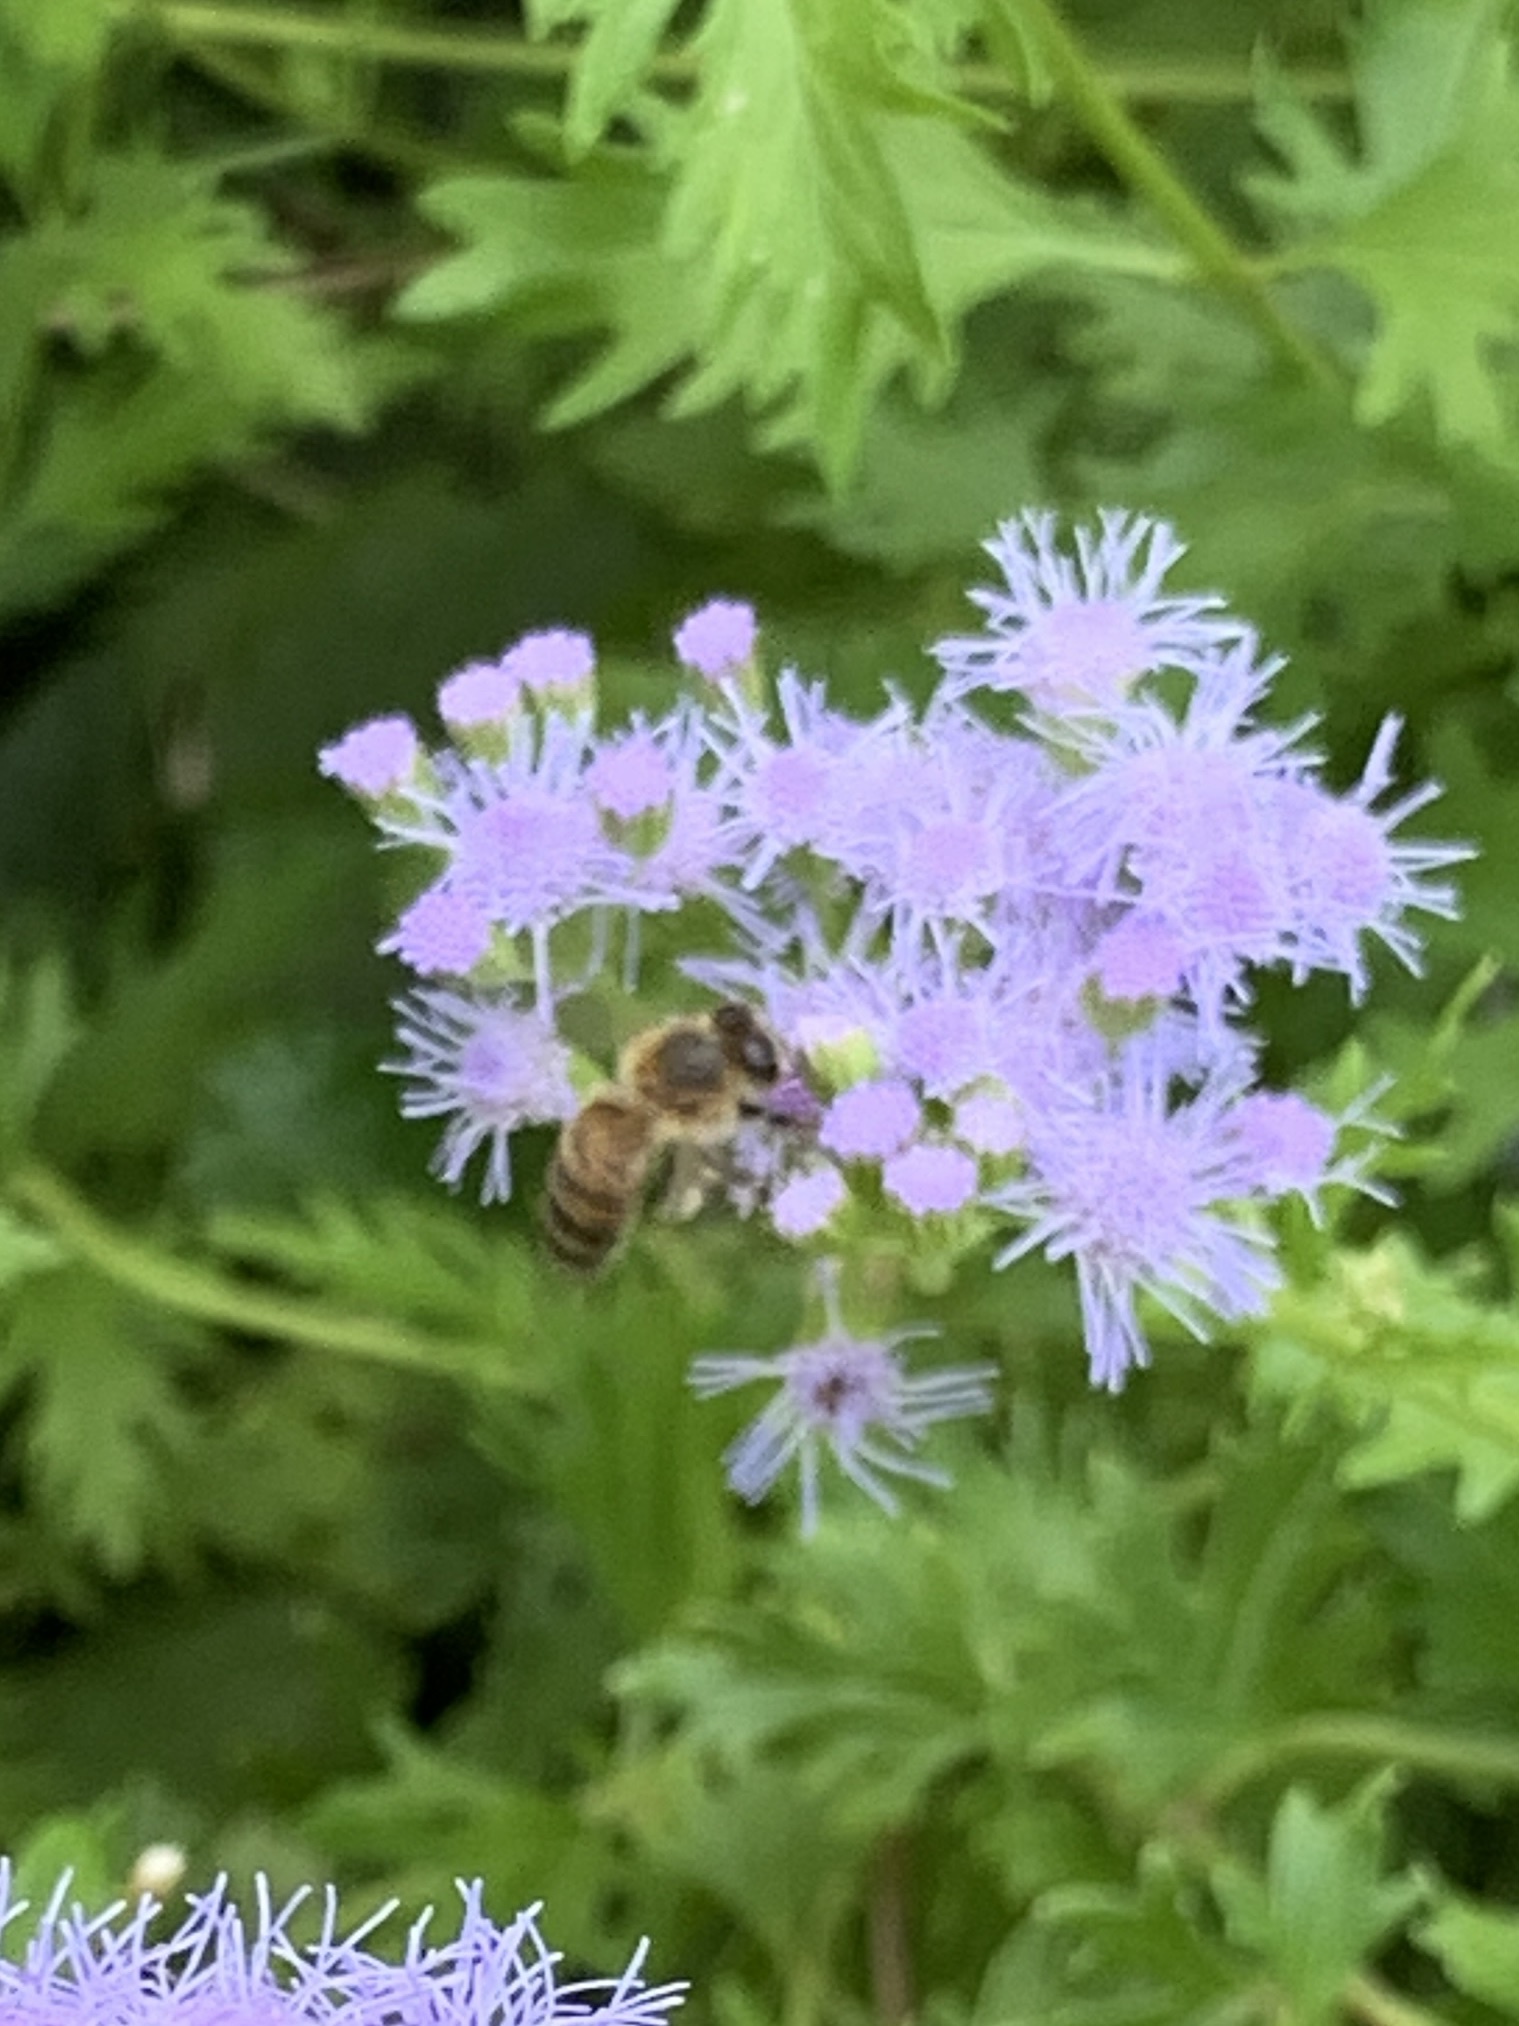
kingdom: Animalia
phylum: Arthropoda
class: Insecta
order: Hymenoptera
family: Apidae
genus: Apis
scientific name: Apis mellifera
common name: Honey bee
